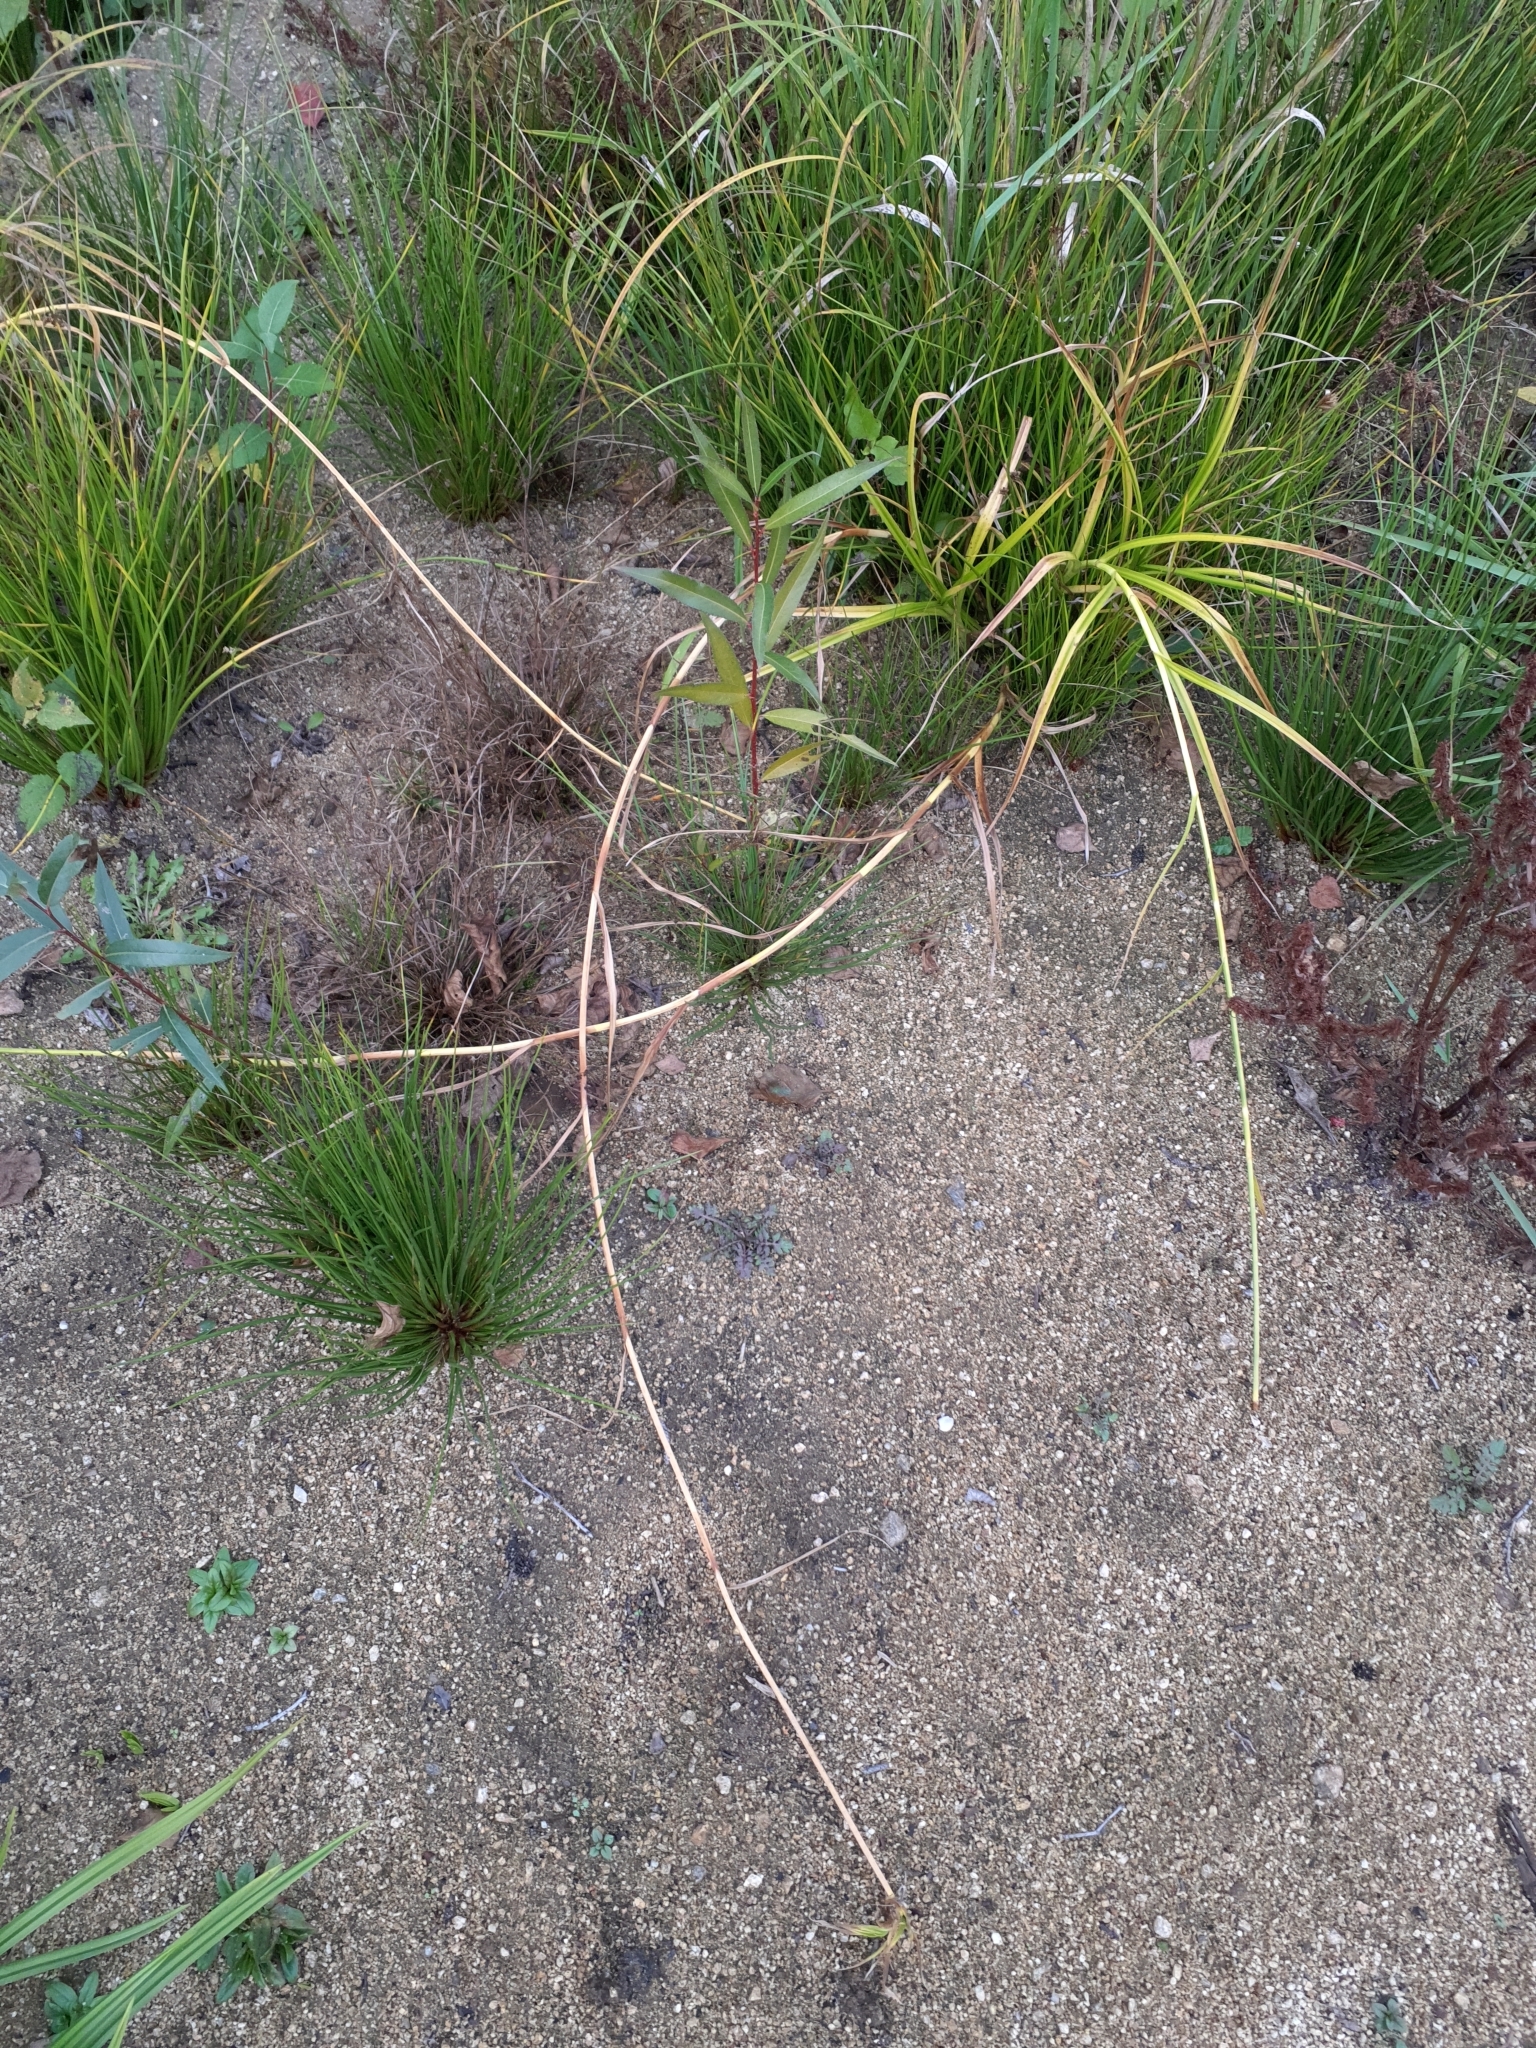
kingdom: Plantae
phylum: Tracheophyta
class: Liliopsida
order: Poales
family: Cyperaceae
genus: Scirpus
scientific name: Scirpus radicans
